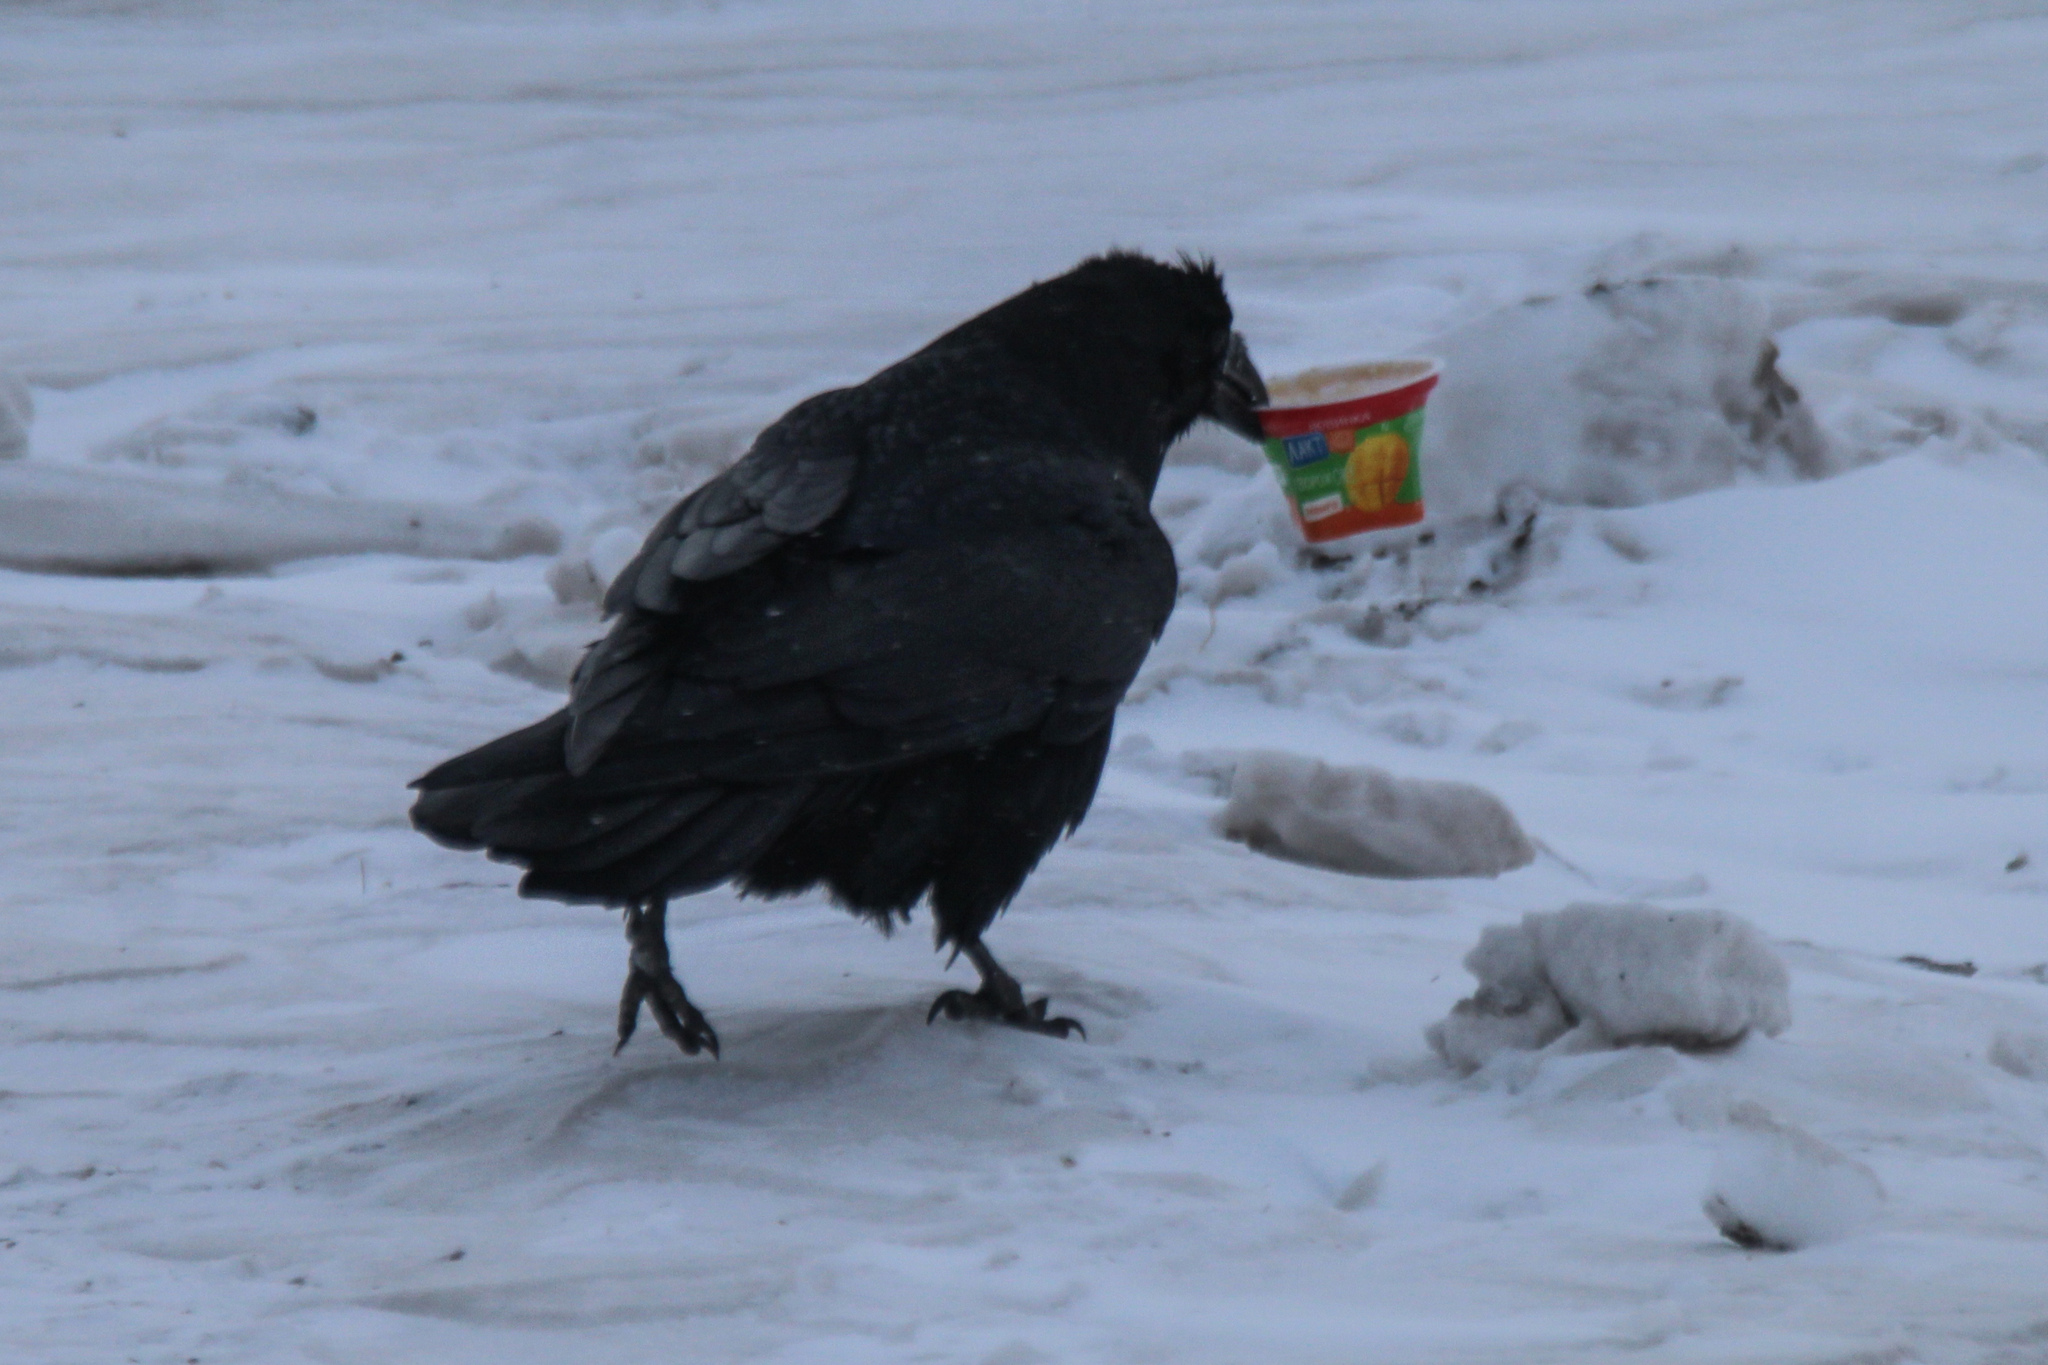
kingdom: Animalia
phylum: Chordata
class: Aves
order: Passeriformes
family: Corvidae
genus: Corvus
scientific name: Corvus corax
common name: Common raven
